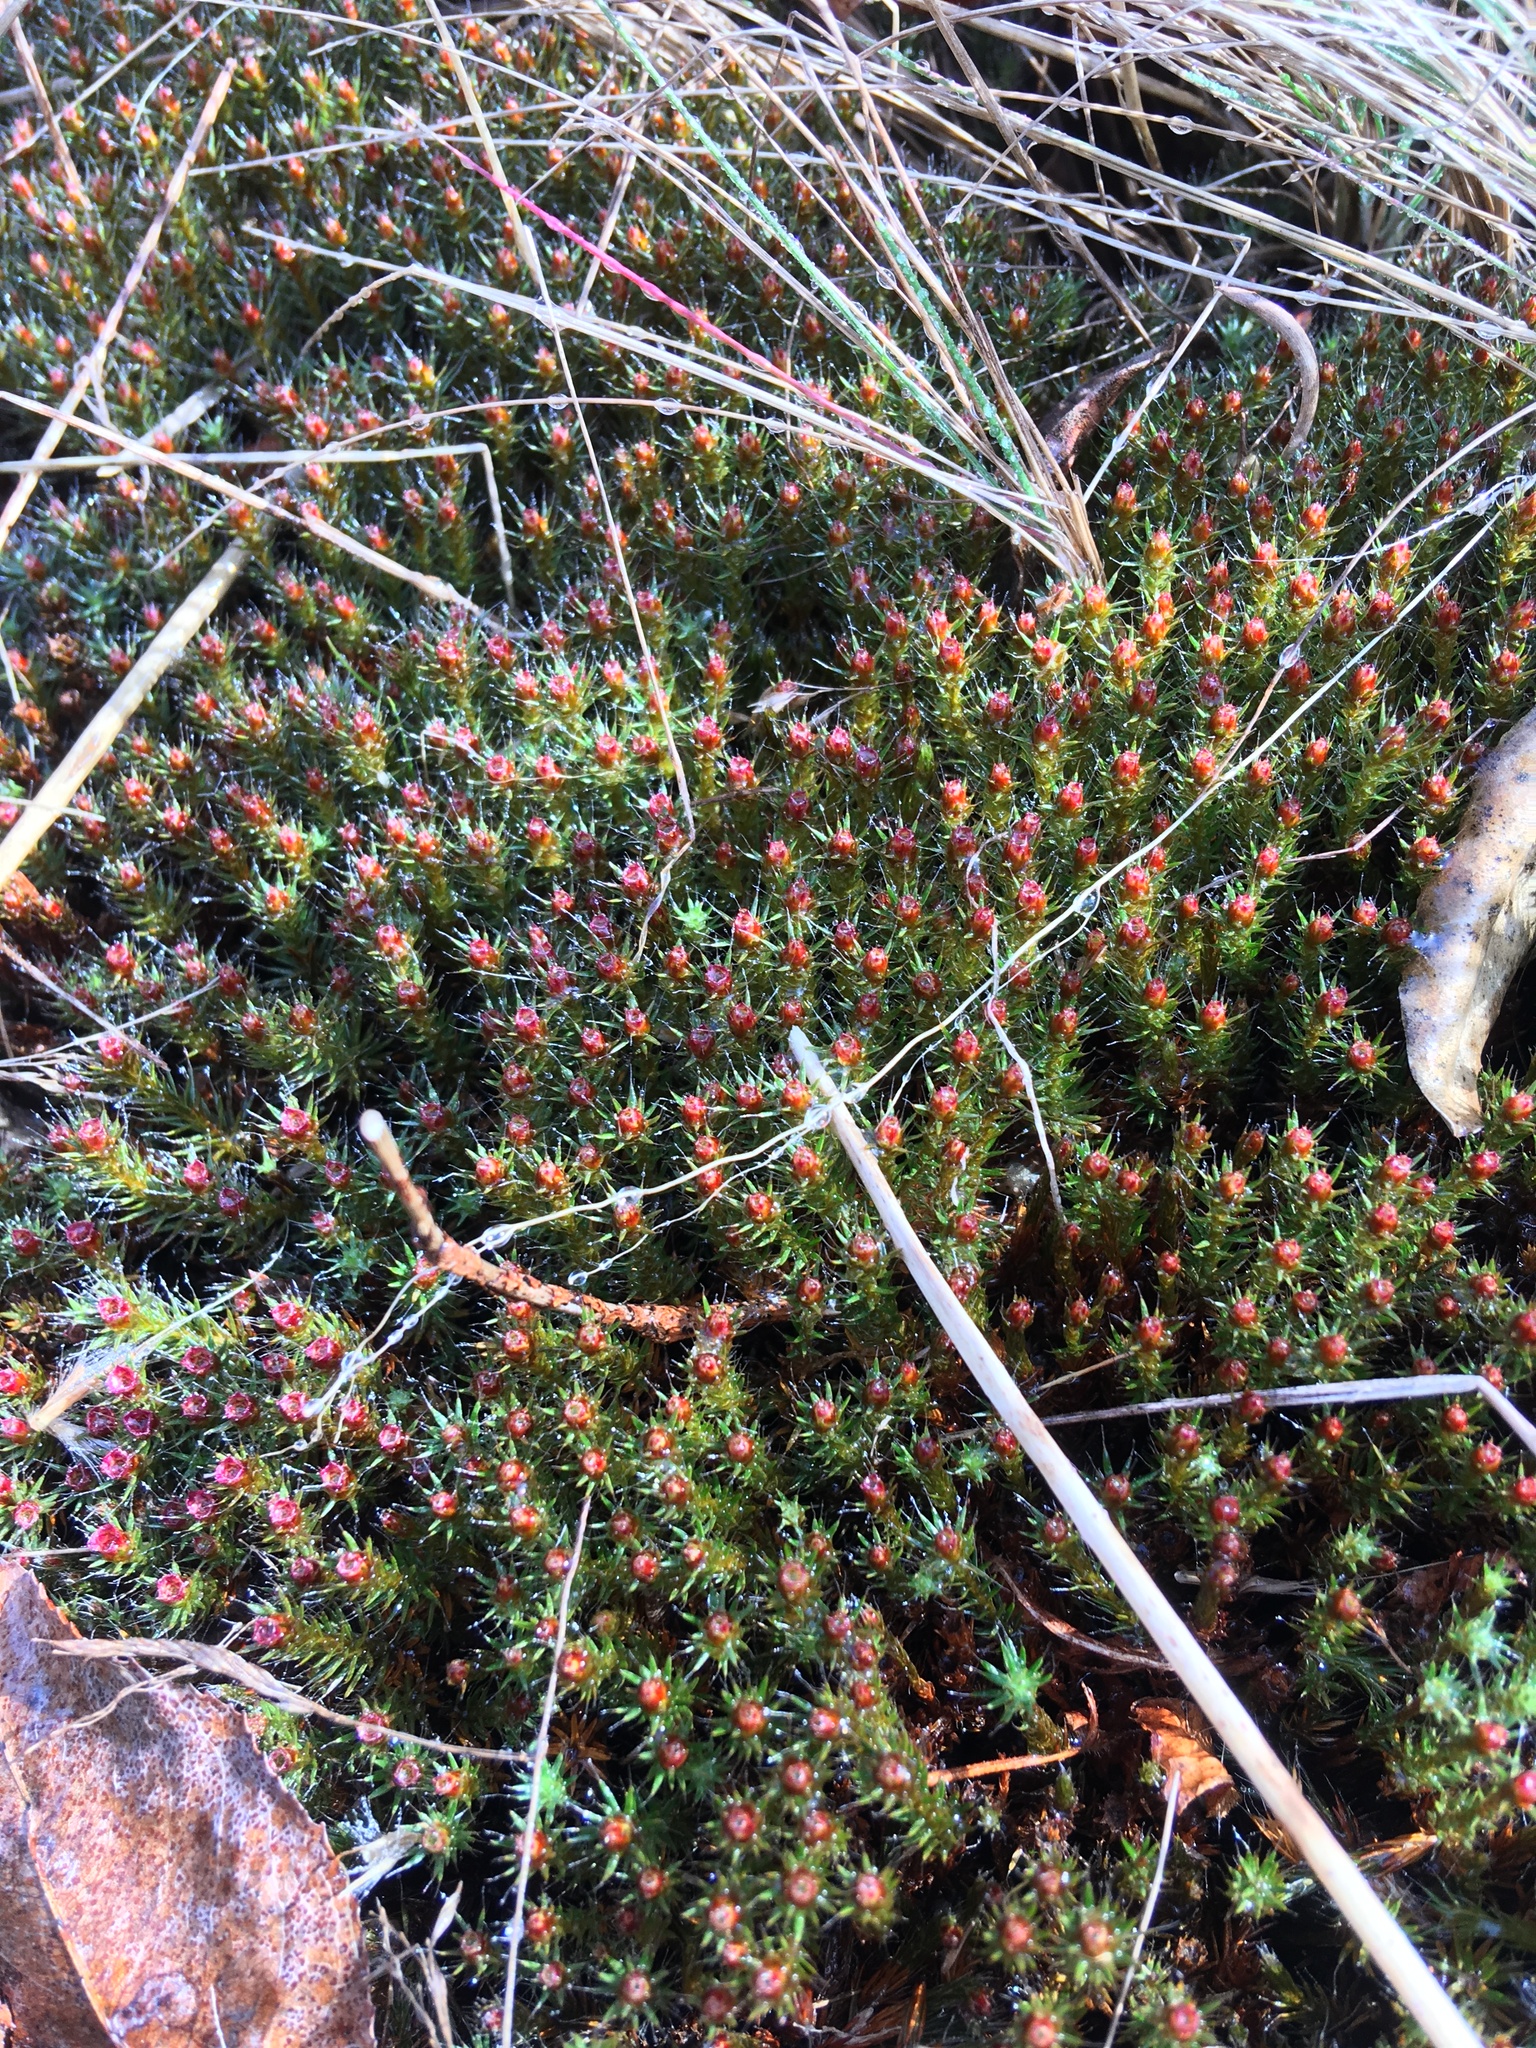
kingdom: Plantae
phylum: Bryophyta
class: Polytrichopsida
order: Polytrichales
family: Polytrichaceae
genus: Polytrichum
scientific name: Polytrichum piliferum
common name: Bristly haircap
